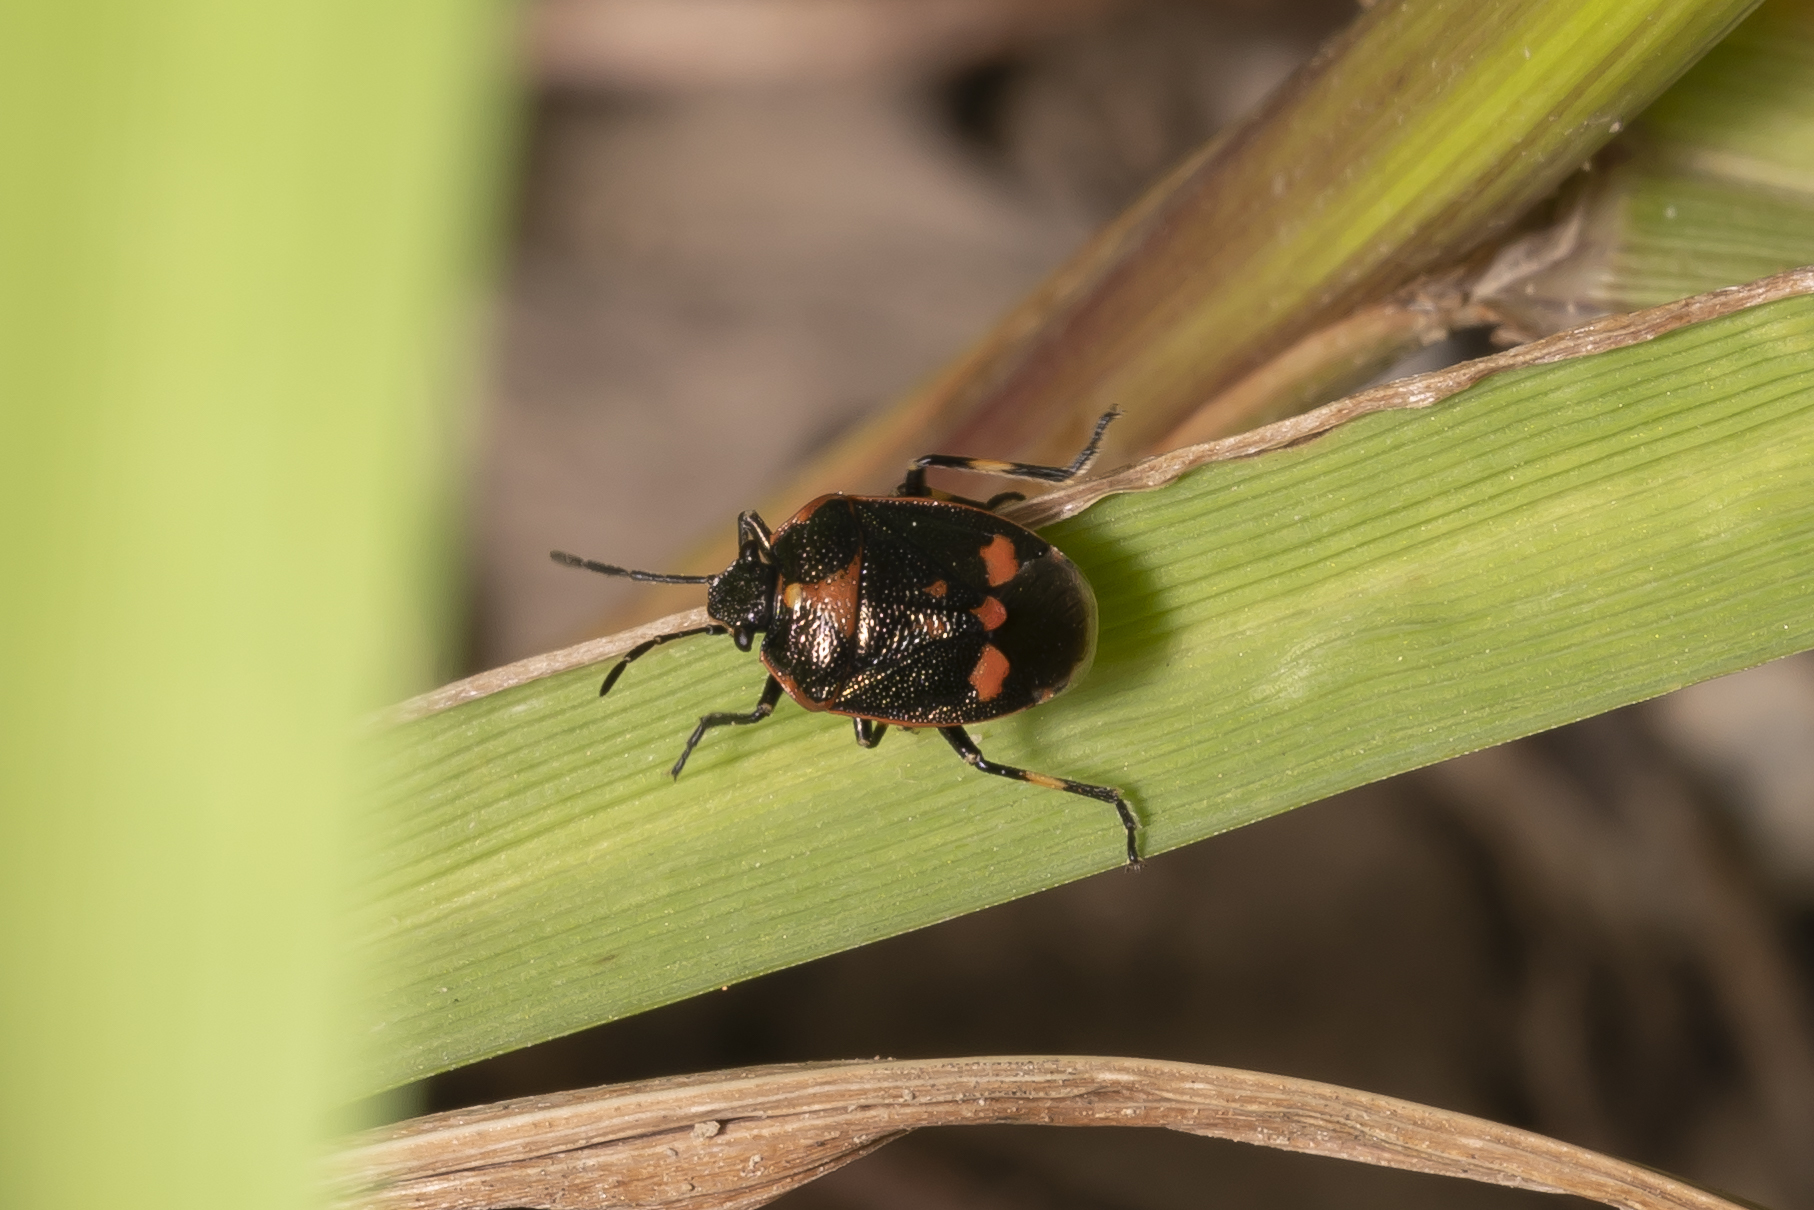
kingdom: Animalia
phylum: Arthropoda
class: Insecta
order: Hemiptera
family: Pentatomidae
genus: Eurydema
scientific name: Eurydema oleracea
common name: Cabbage bug
